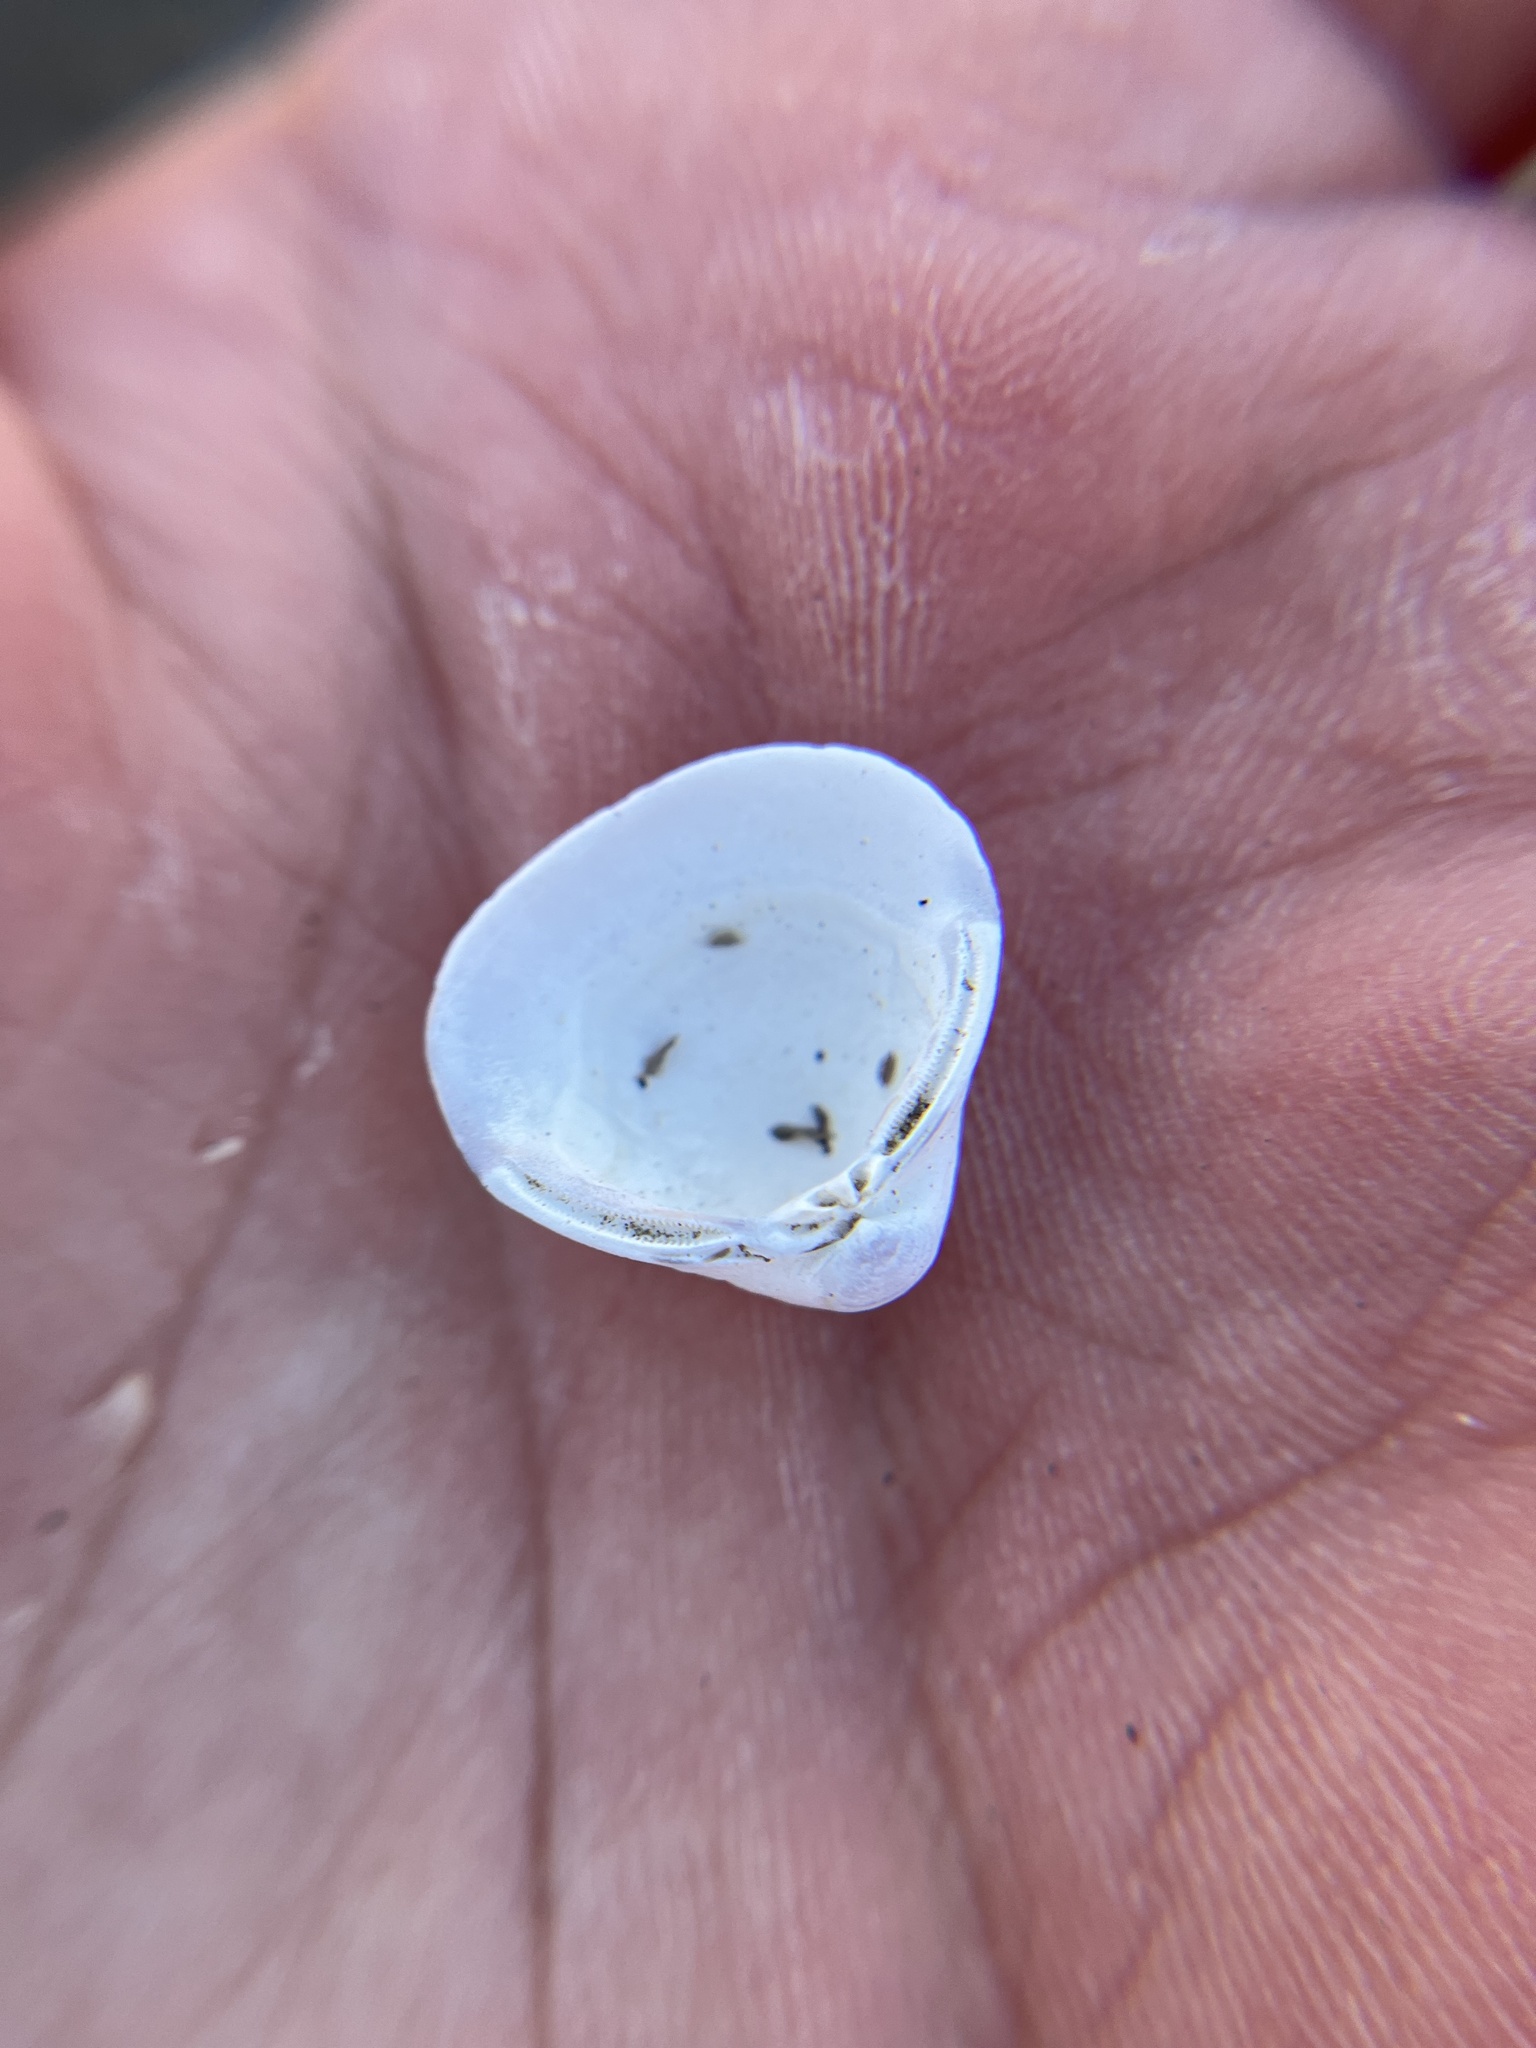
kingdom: Animalia
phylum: Mollusca
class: Bivalvia
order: Venerida
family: Cyrenidae
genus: Corbicula
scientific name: Corbicula fluminea
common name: Asian clam
